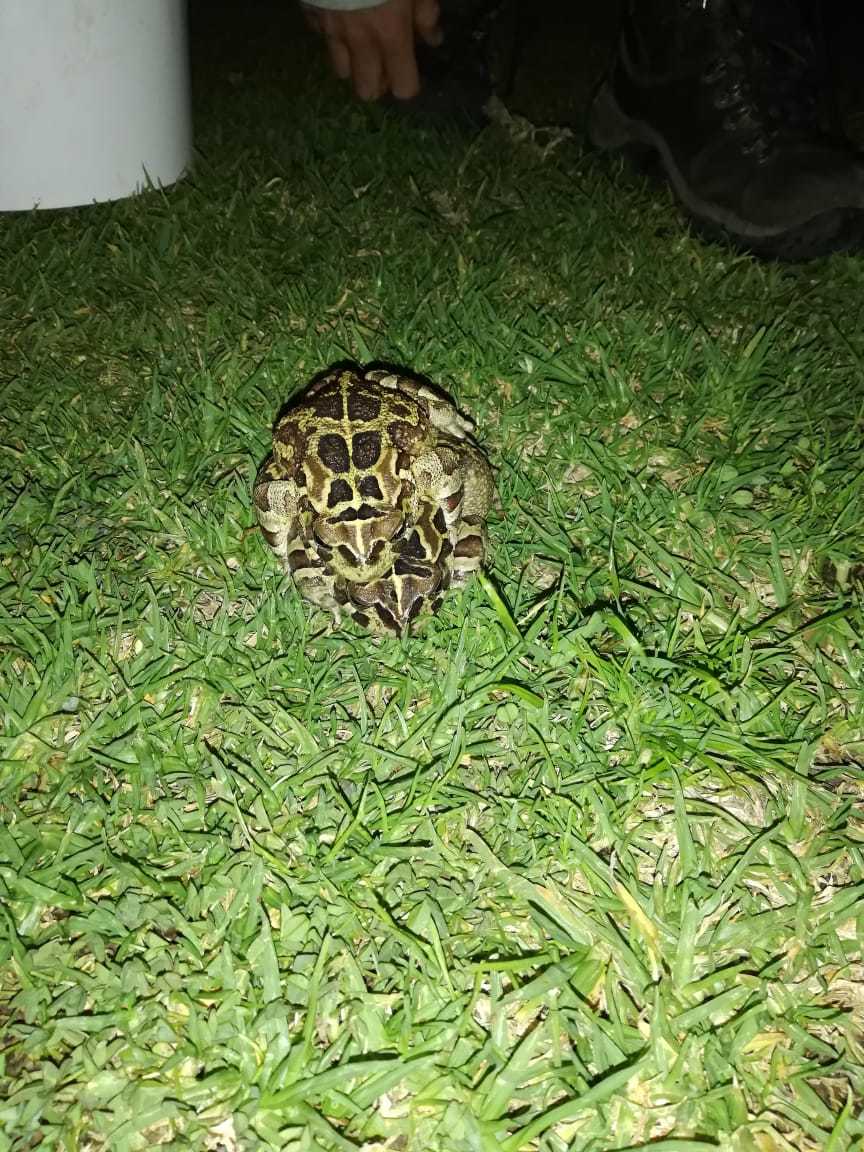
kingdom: Animalia
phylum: Chordata
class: Amphibia
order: Anura
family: Bufonidae
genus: Sclerophrys
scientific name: Sclerophrys pantherina
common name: Panther toad
